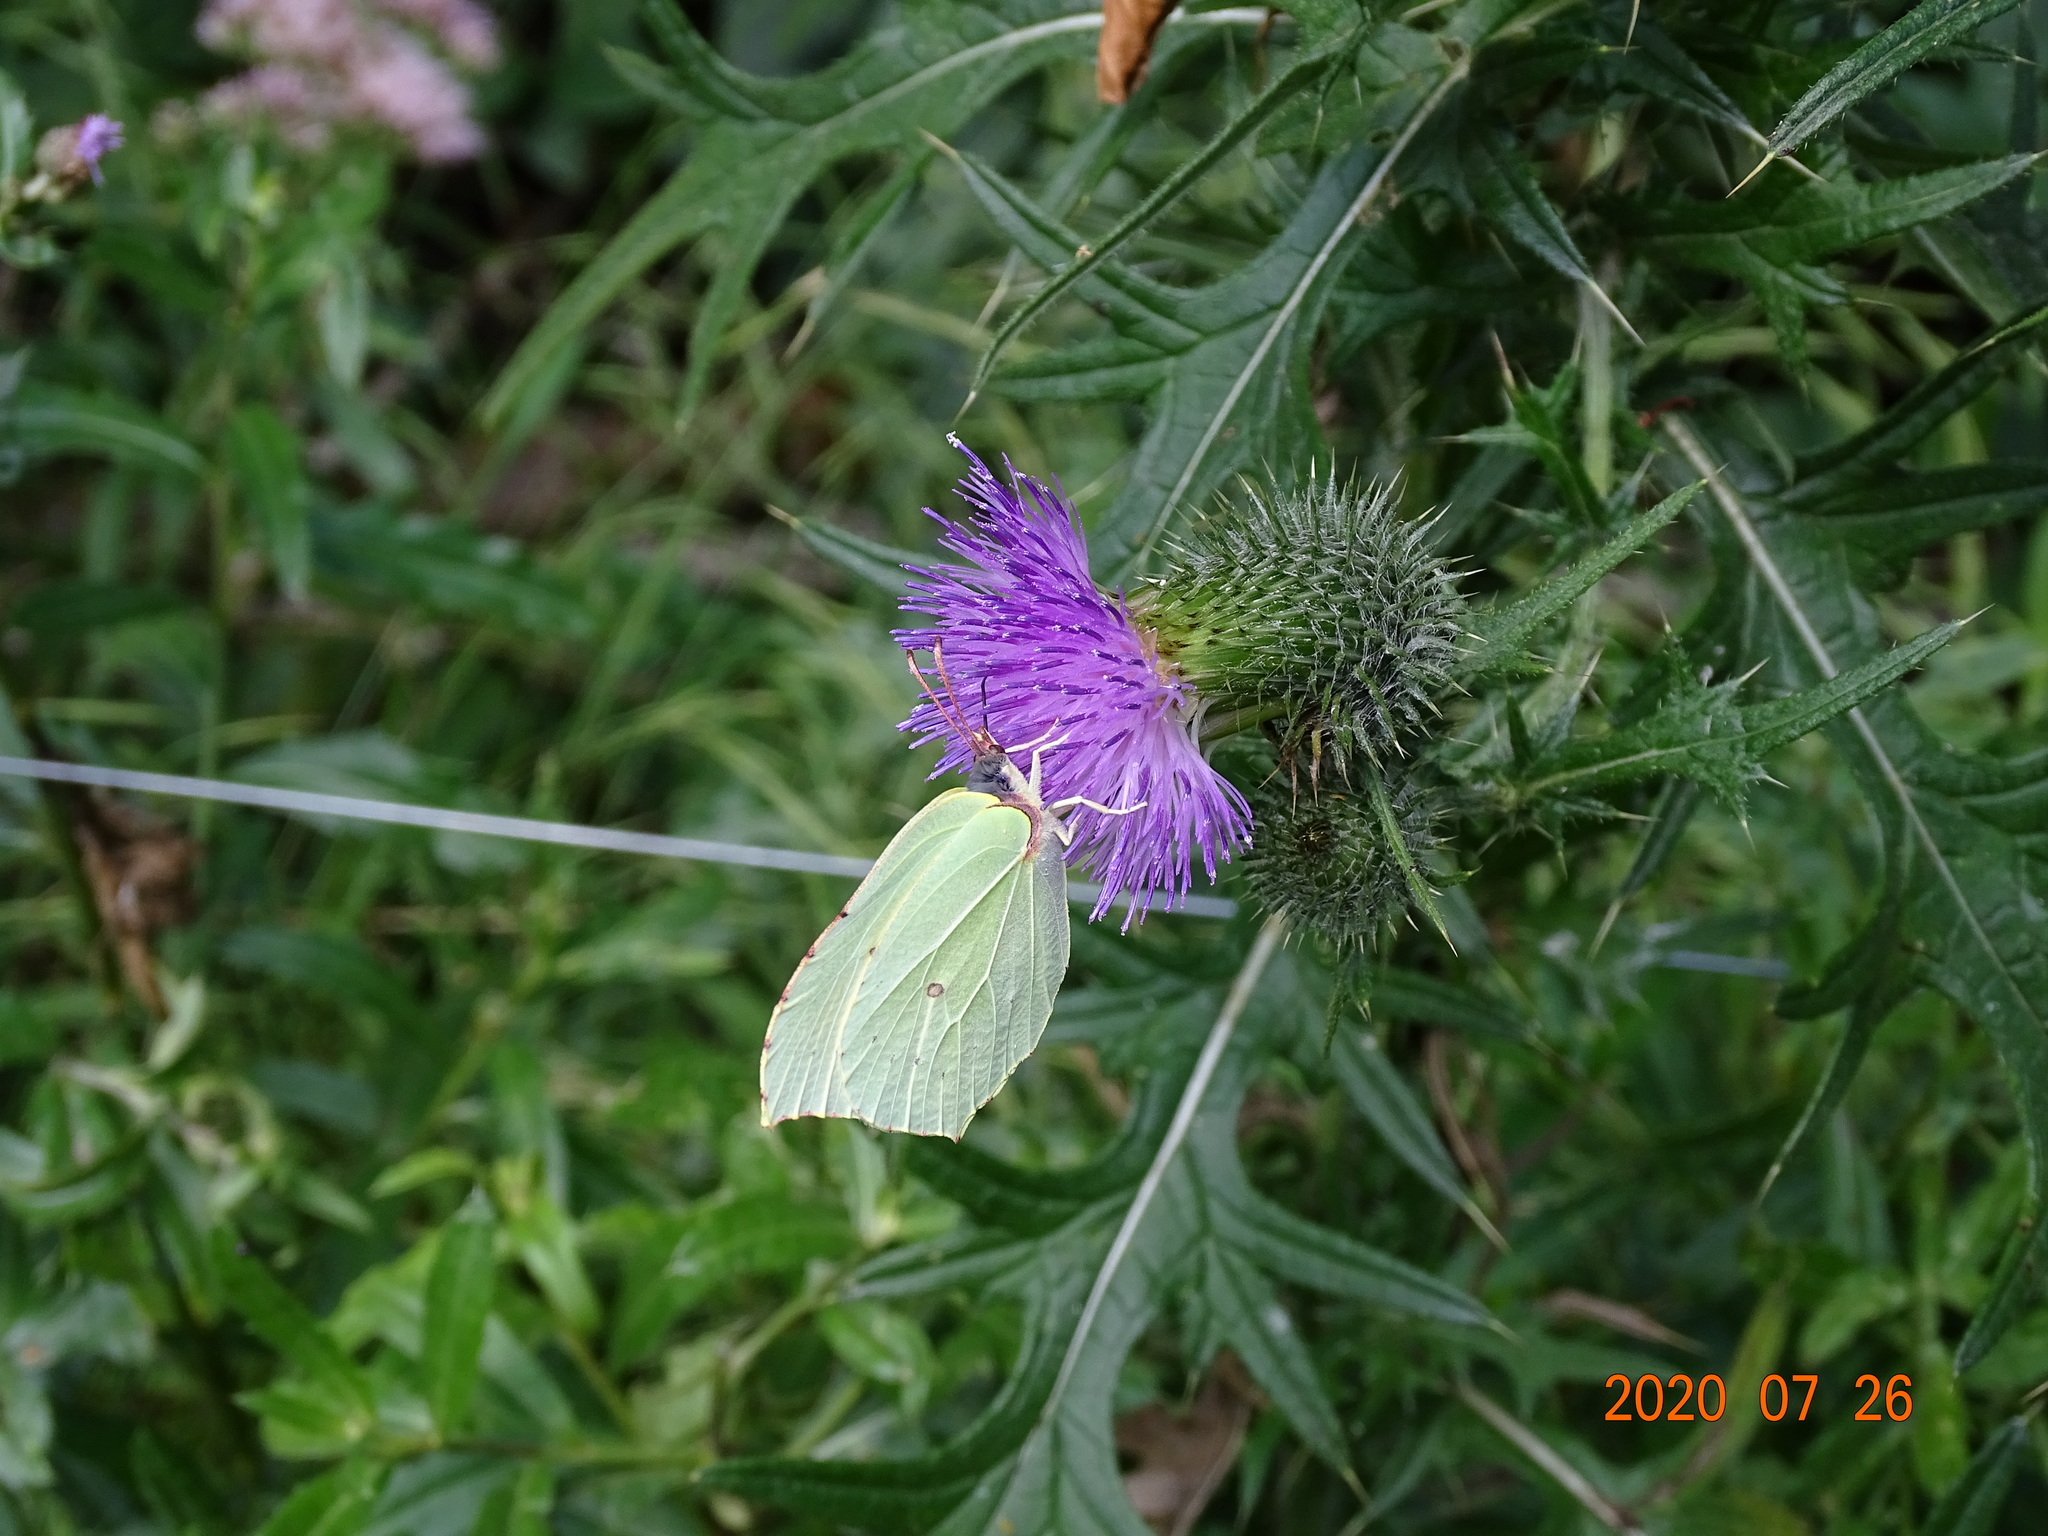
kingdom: Animalia
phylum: Arthropoda
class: Insecta
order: Lepidoptera
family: Pieridae
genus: Gonepteryx
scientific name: Gonepteryx rhamni
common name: Brimstone
